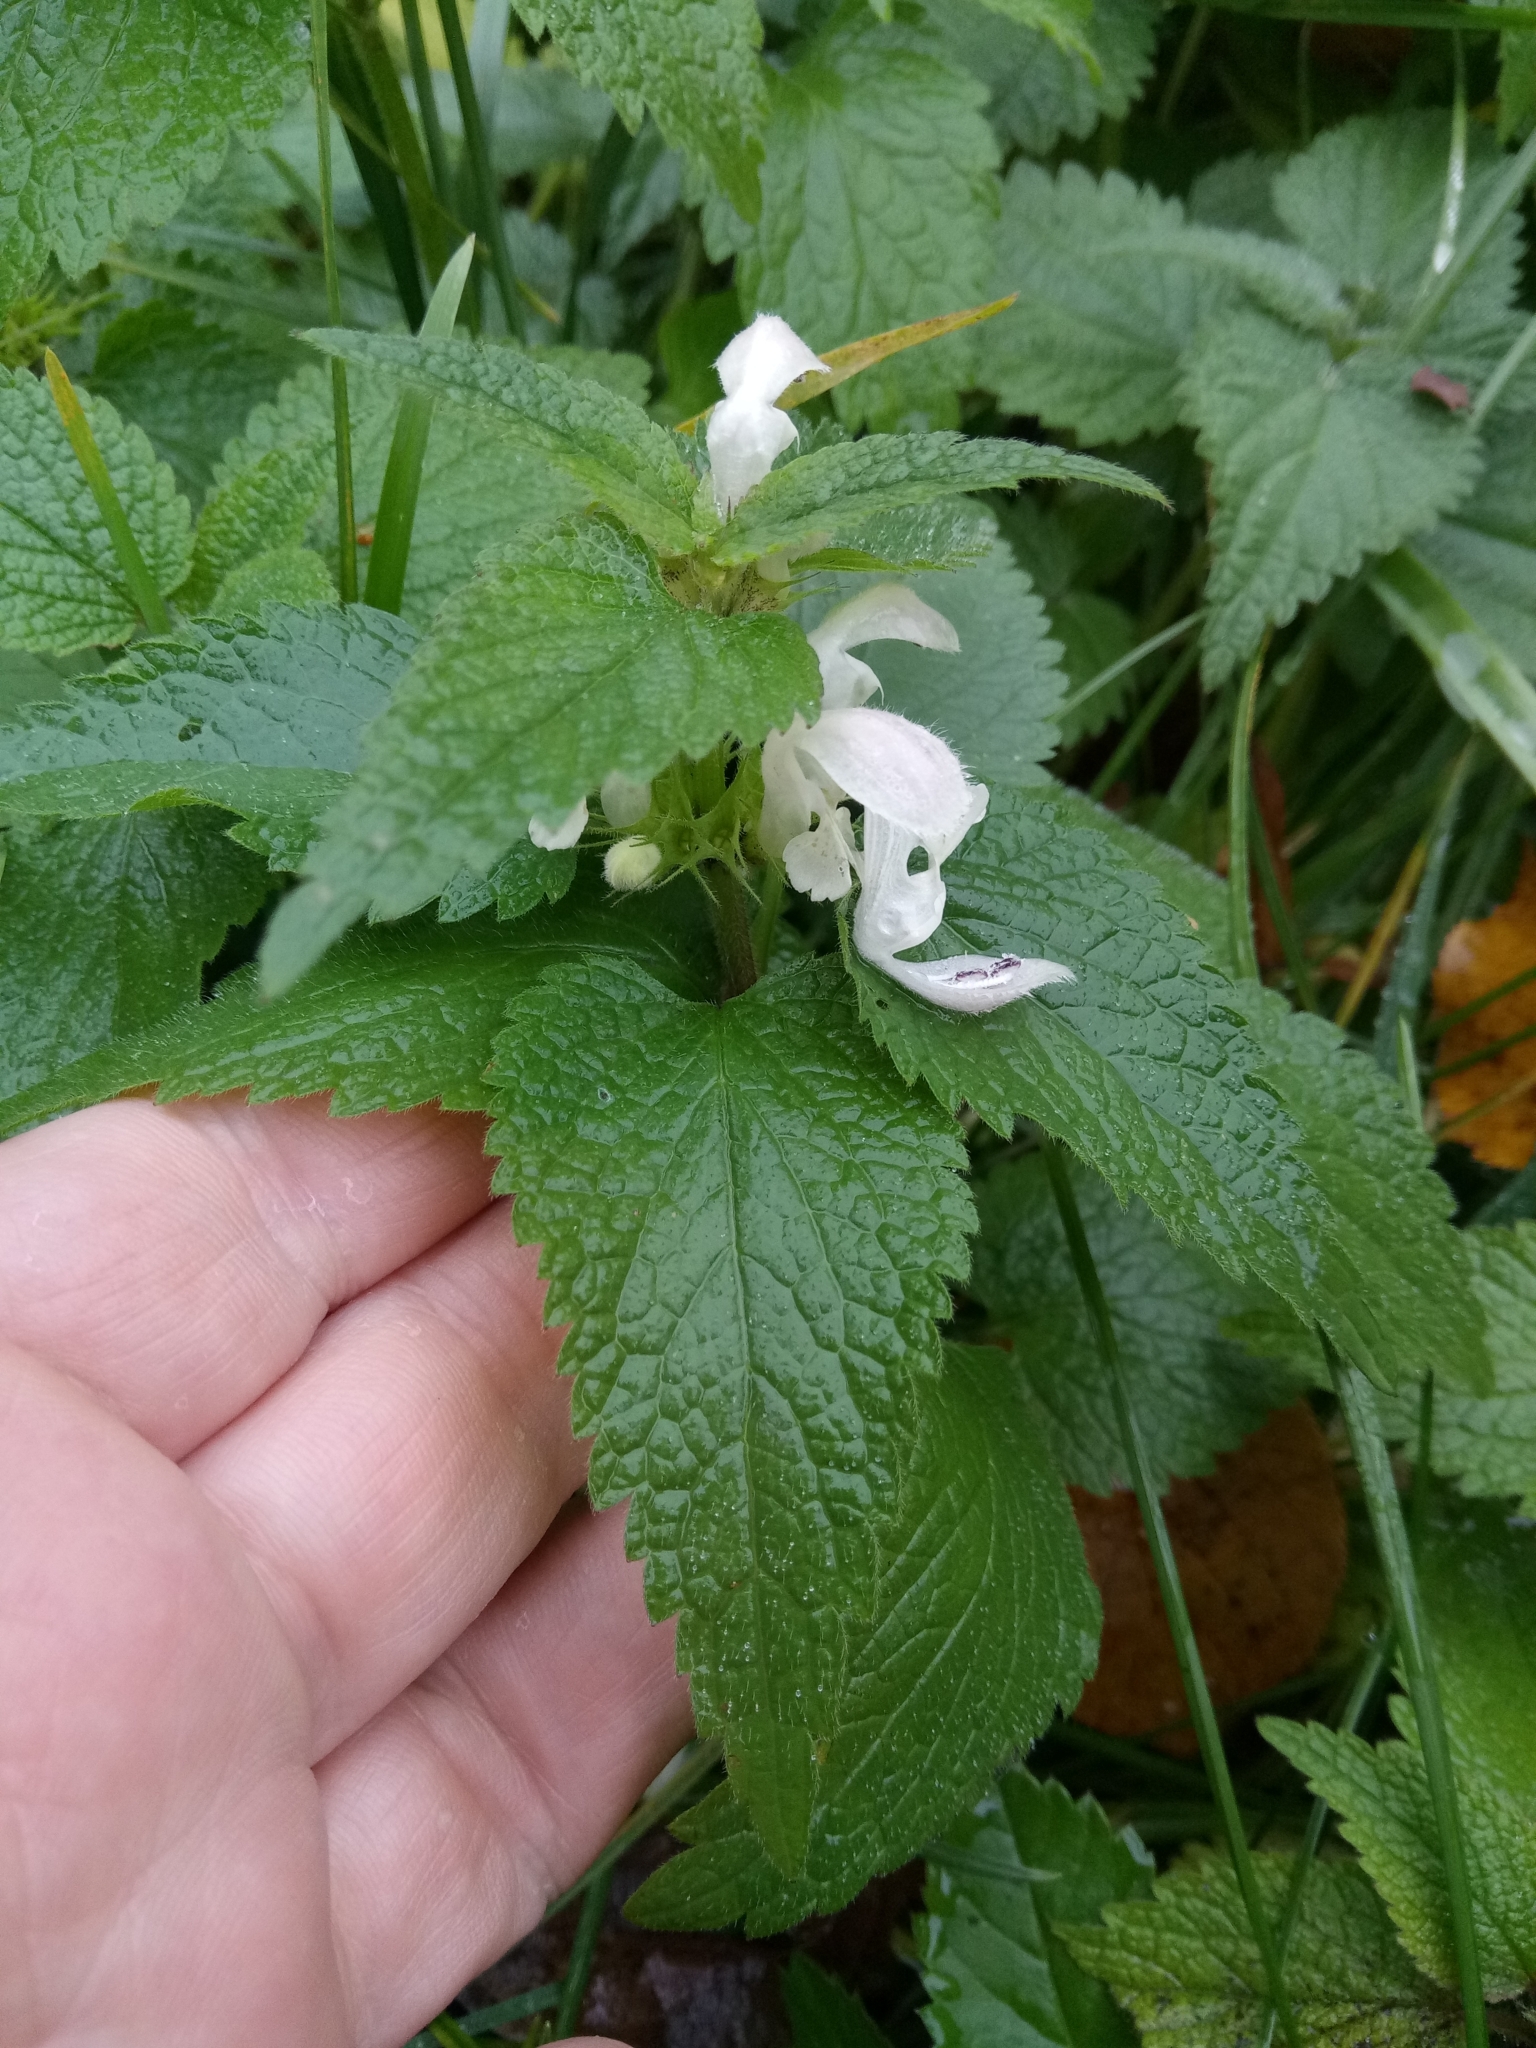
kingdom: Plantae
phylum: Tracheophyta
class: Magnoliopsida
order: Lamiales
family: Lamiaceae
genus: Lamium
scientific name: Lamium album
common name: White dead-nettle
